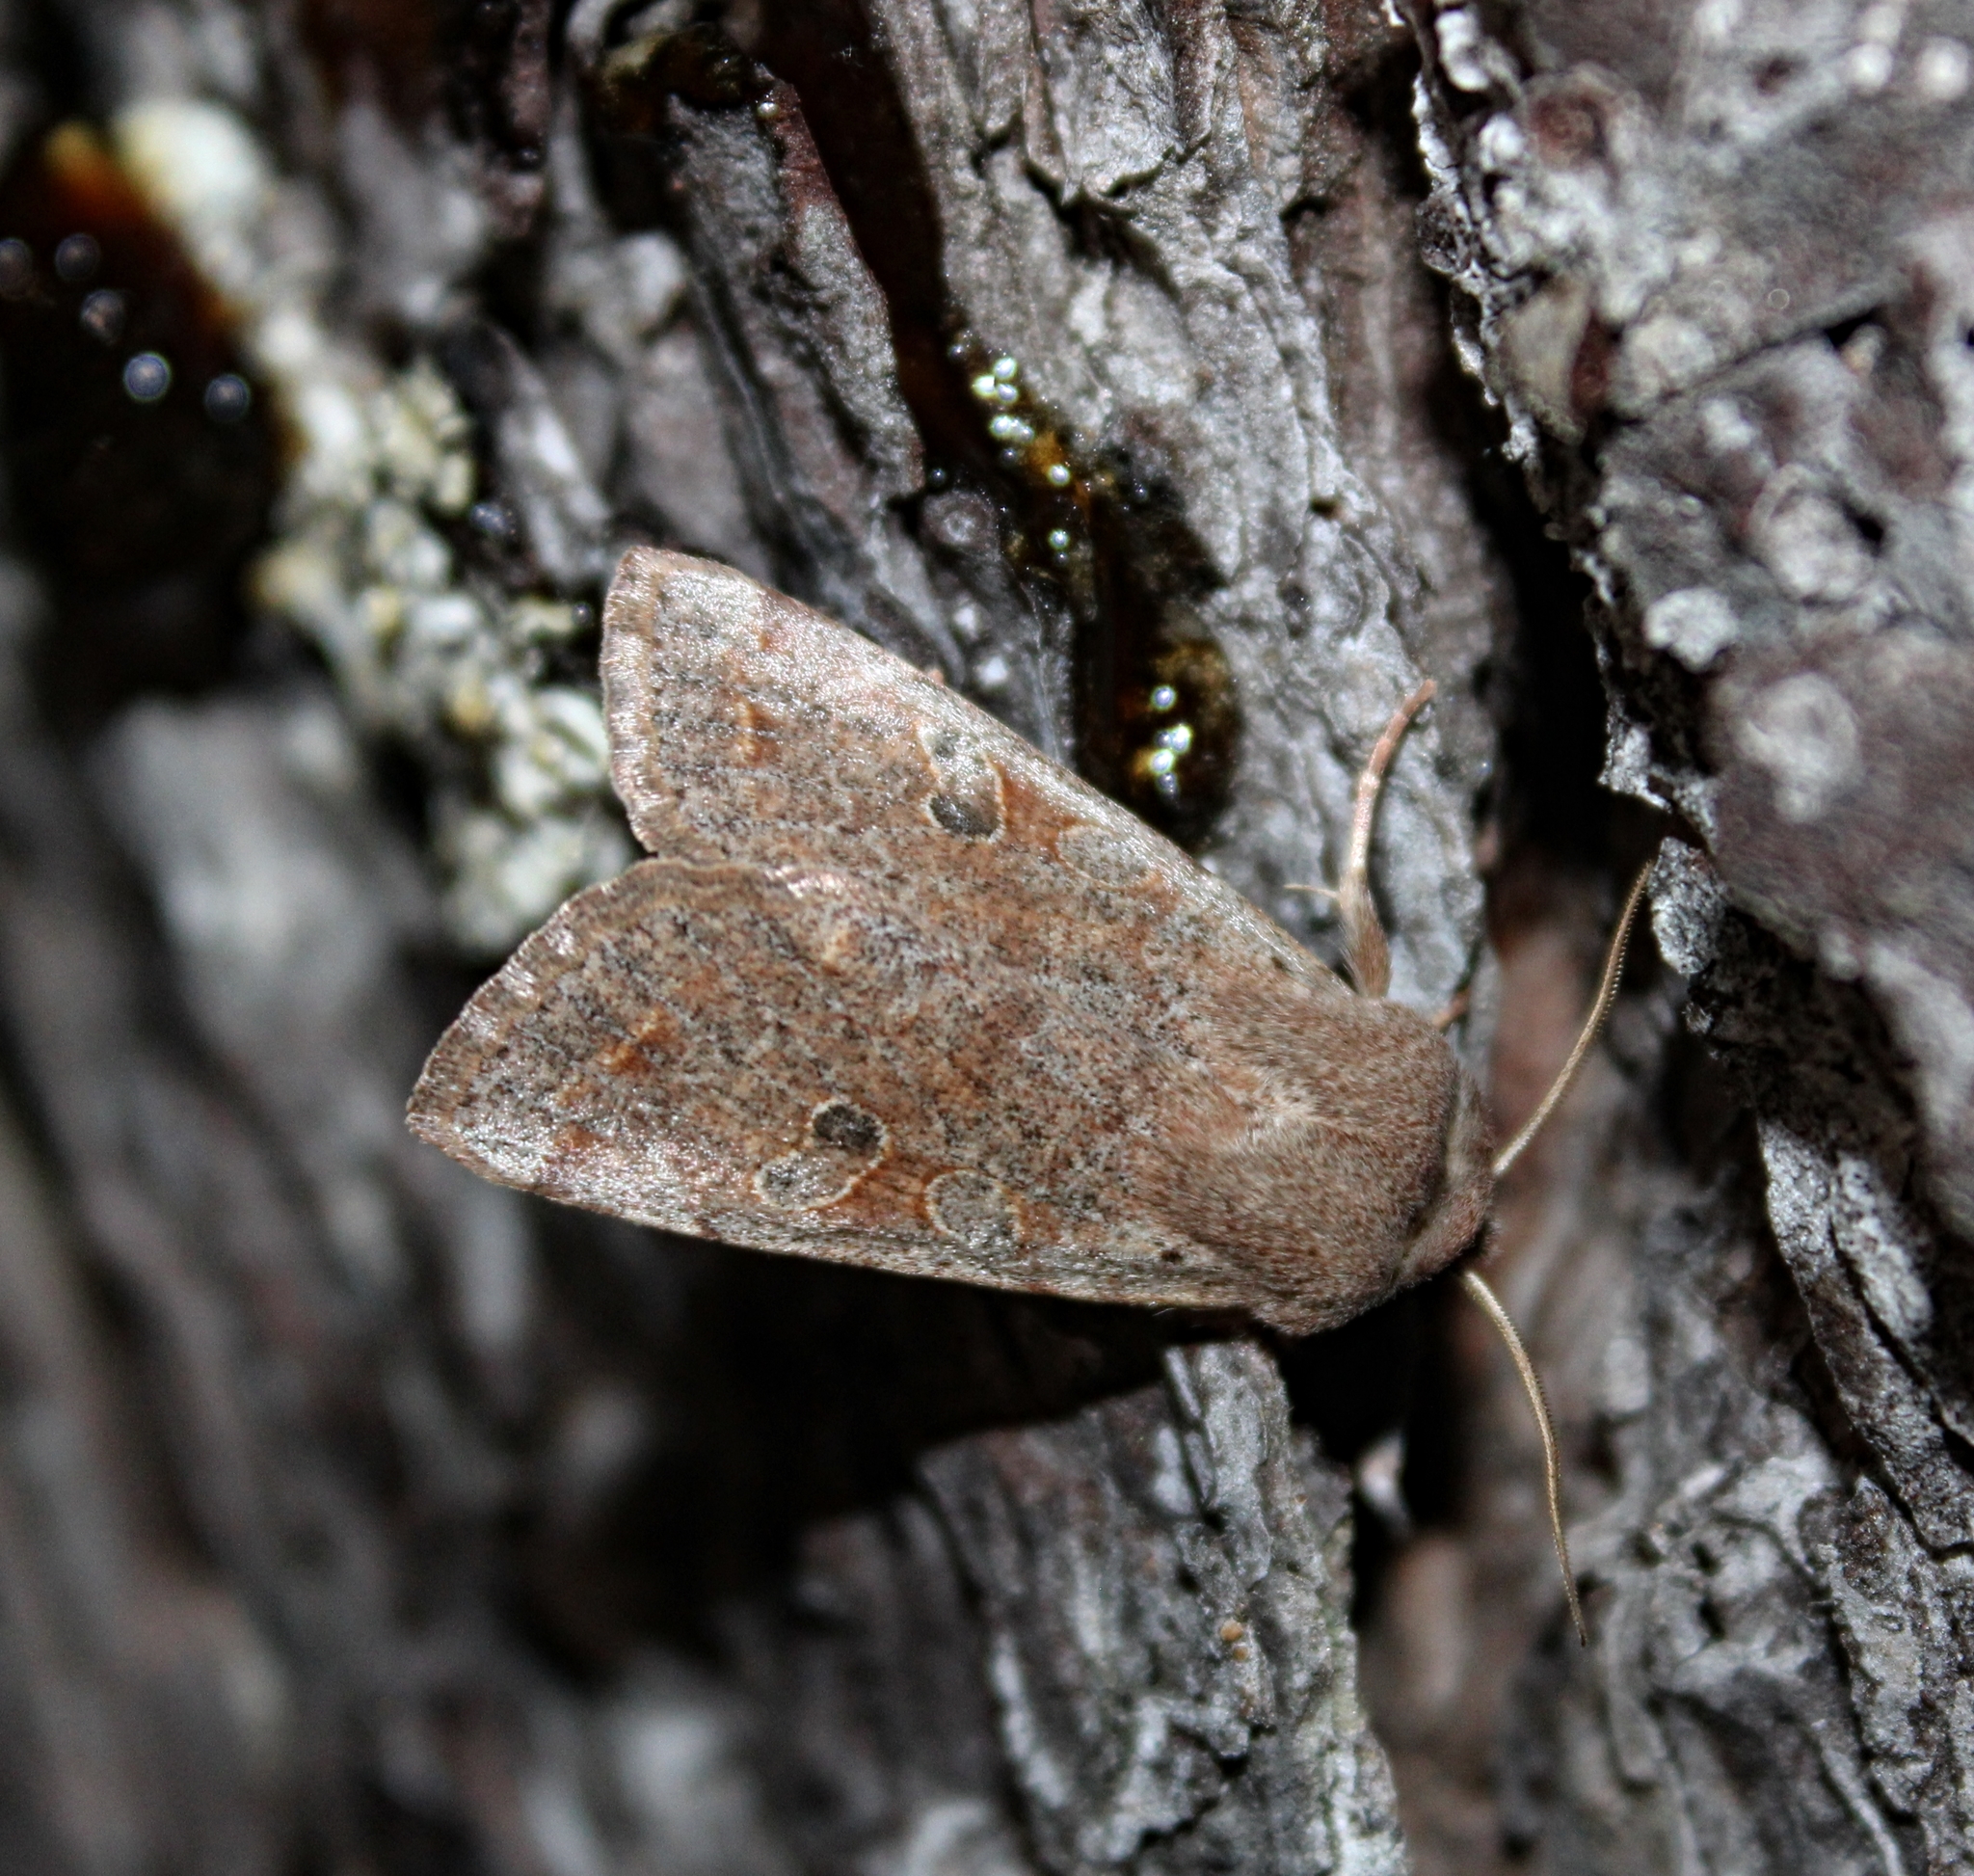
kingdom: Animalia
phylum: Arthropoda
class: Insecta
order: Lepidoptera
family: Noctuidae
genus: Orthosia
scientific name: Orthosia hibisci
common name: Green fruitworm
